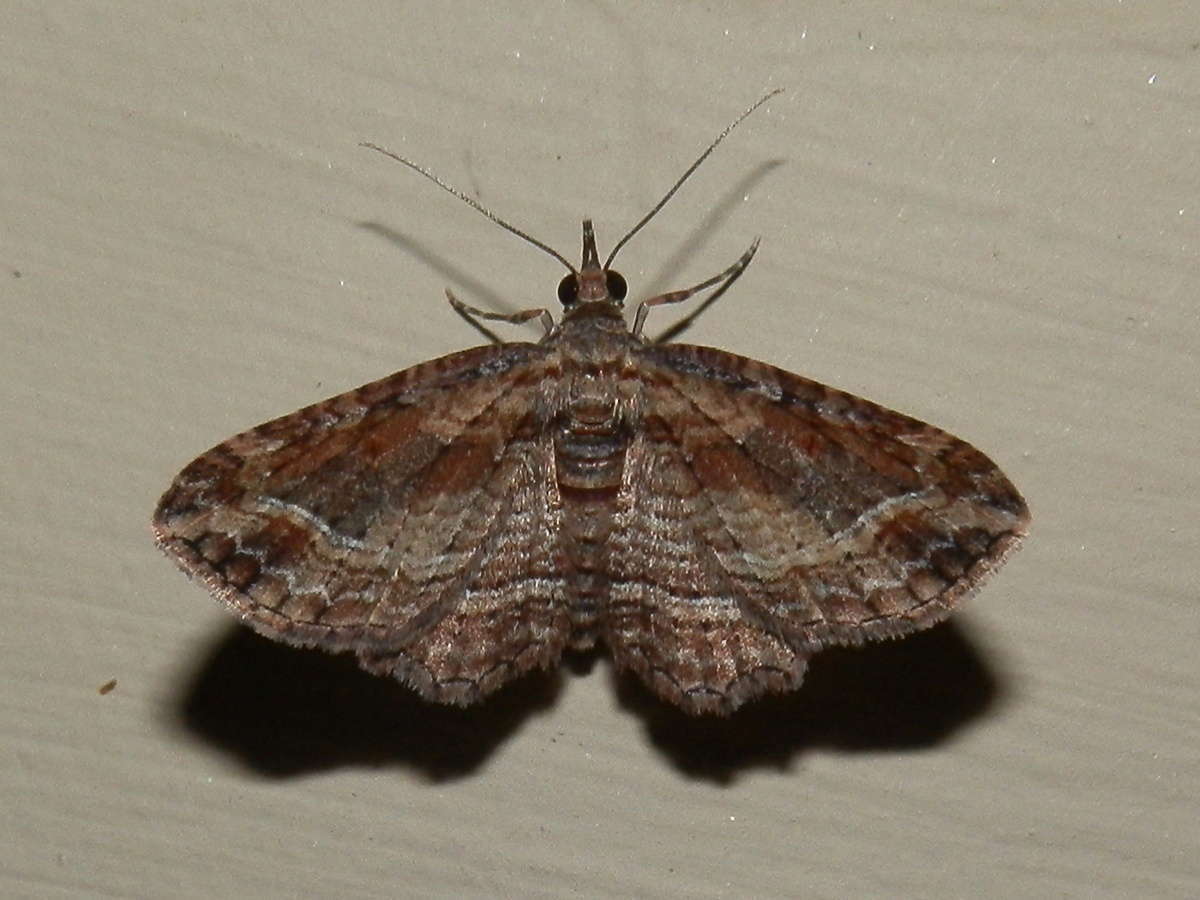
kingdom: Animalia
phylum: Arthropoda
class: Insecta
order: Lepidoptera
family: Geometridae
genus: Chloroclystis
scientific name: Chloroclystis filata
